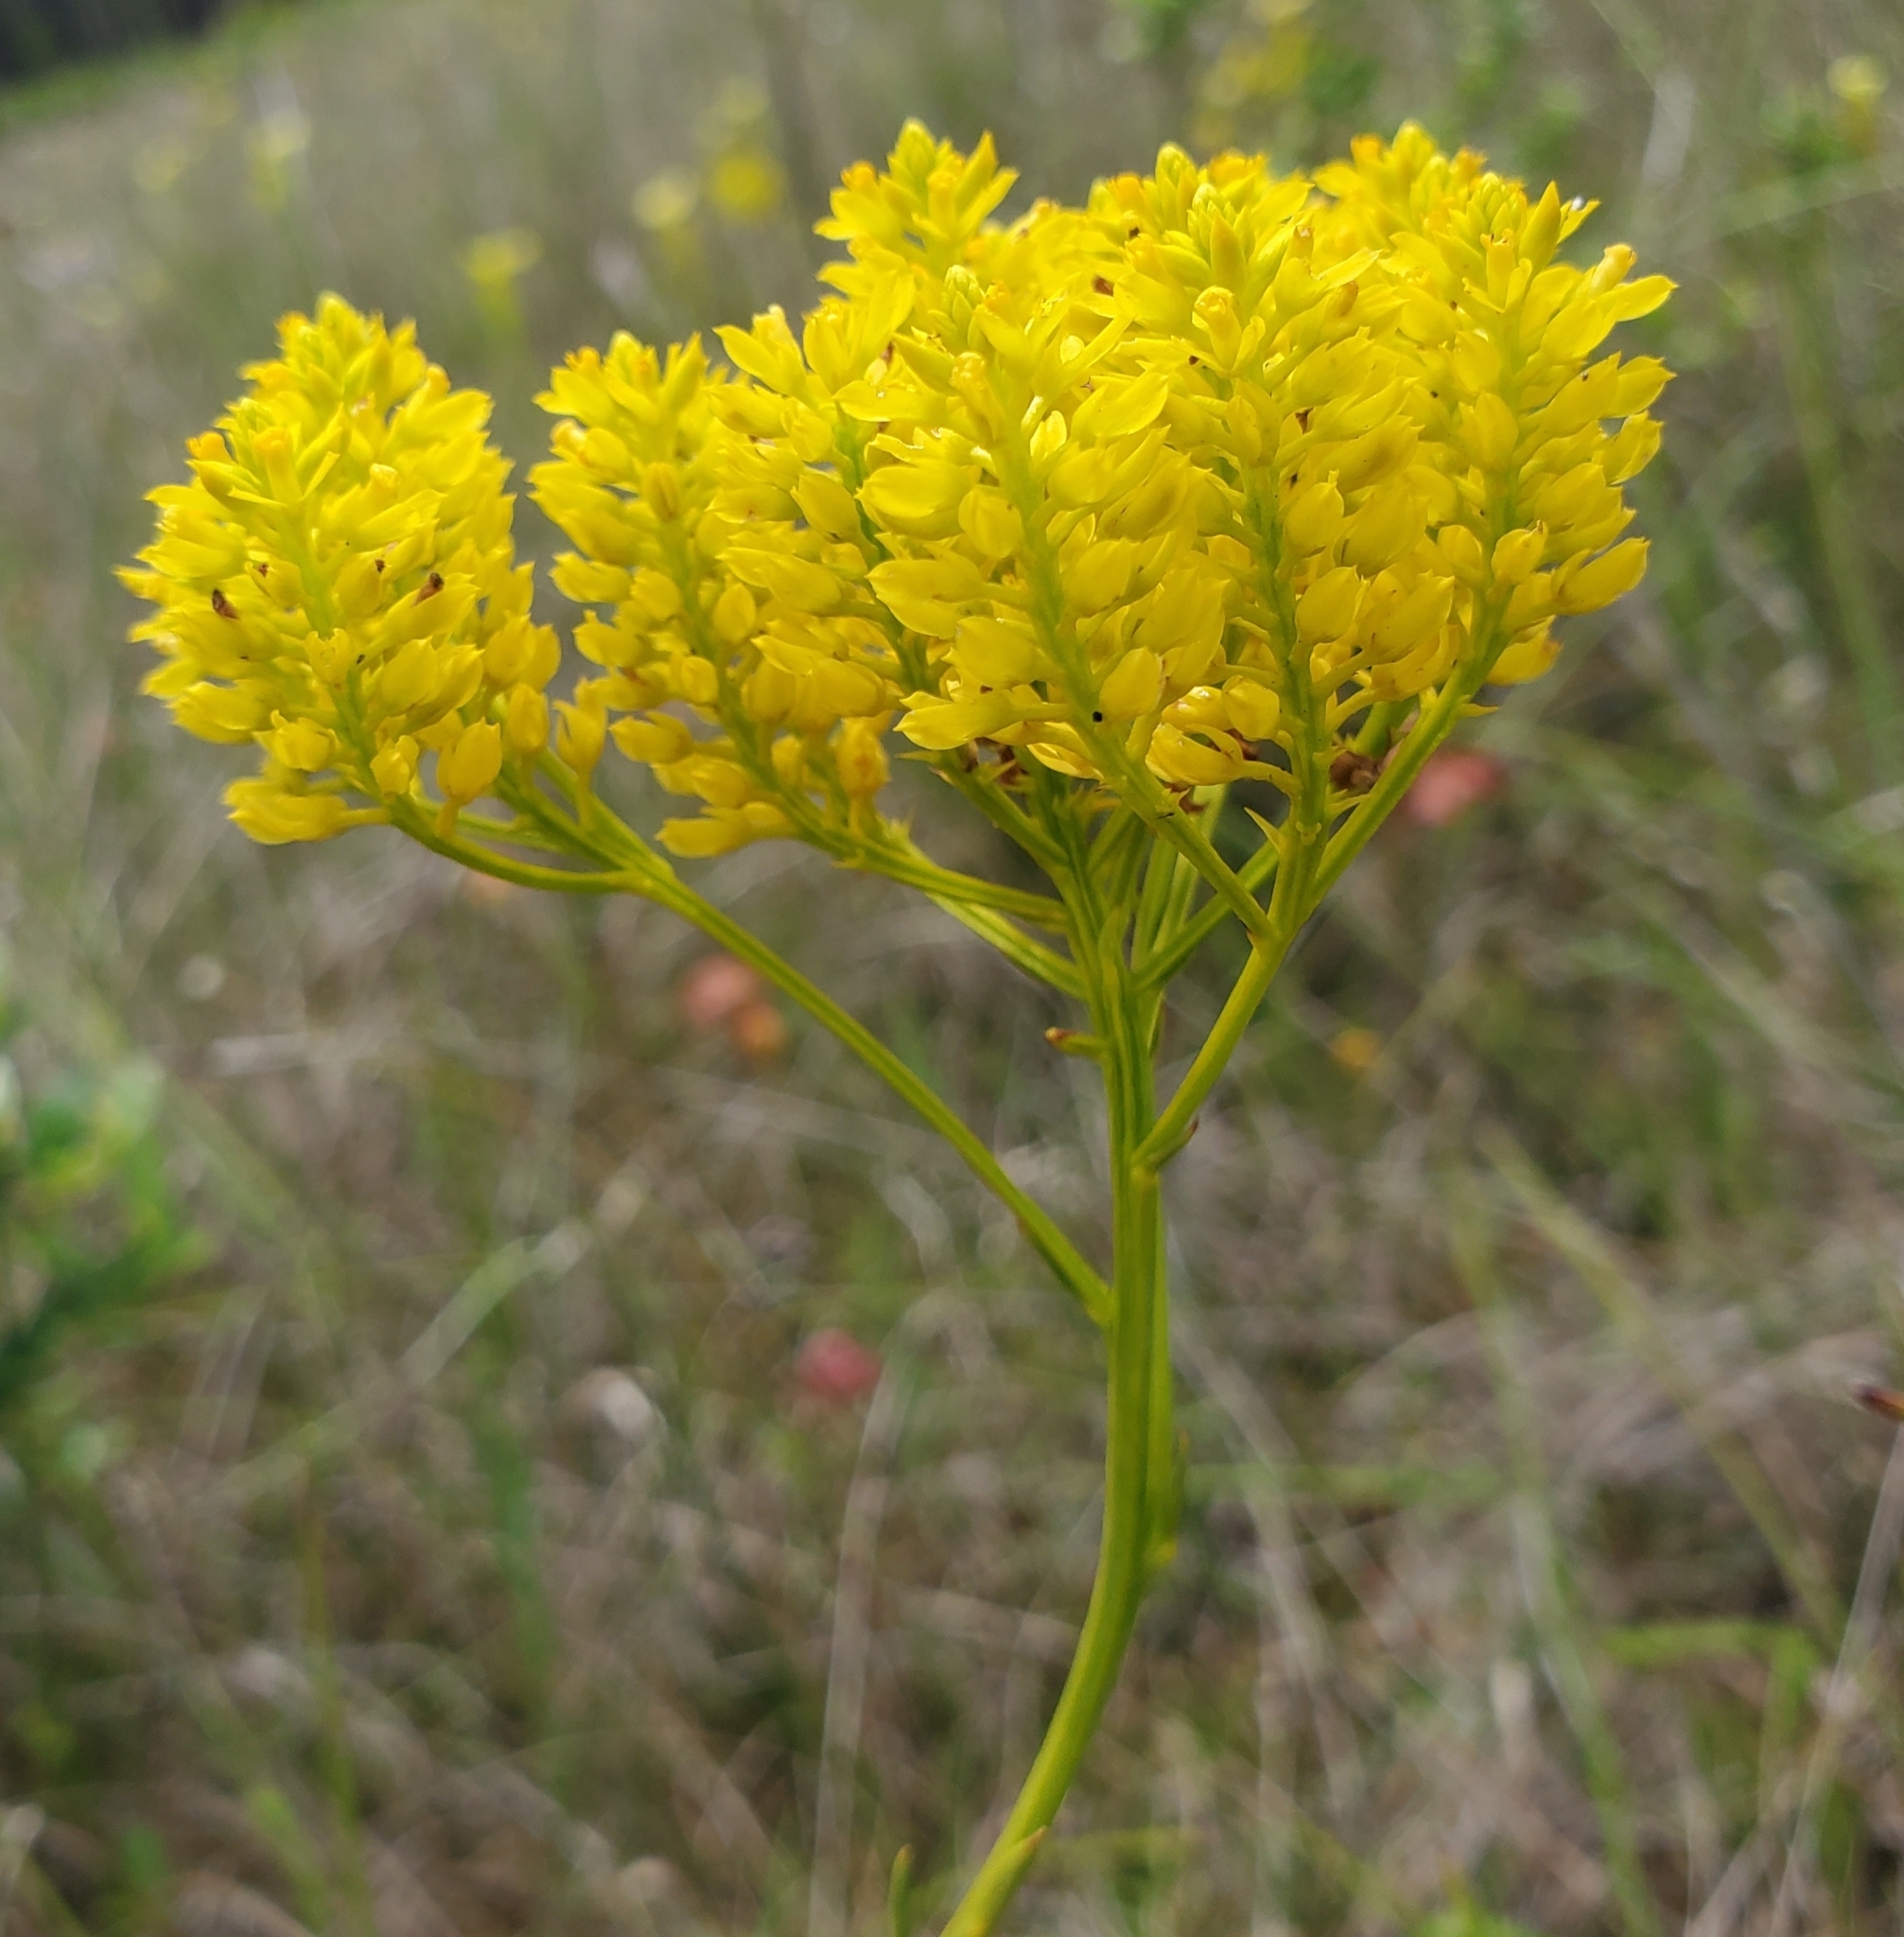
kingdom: Plantae
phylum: Tracheophyta
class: Magnoliopsida
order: Fabales
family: Polygalaceae
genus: Polygala
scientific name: Polygala cymosa
